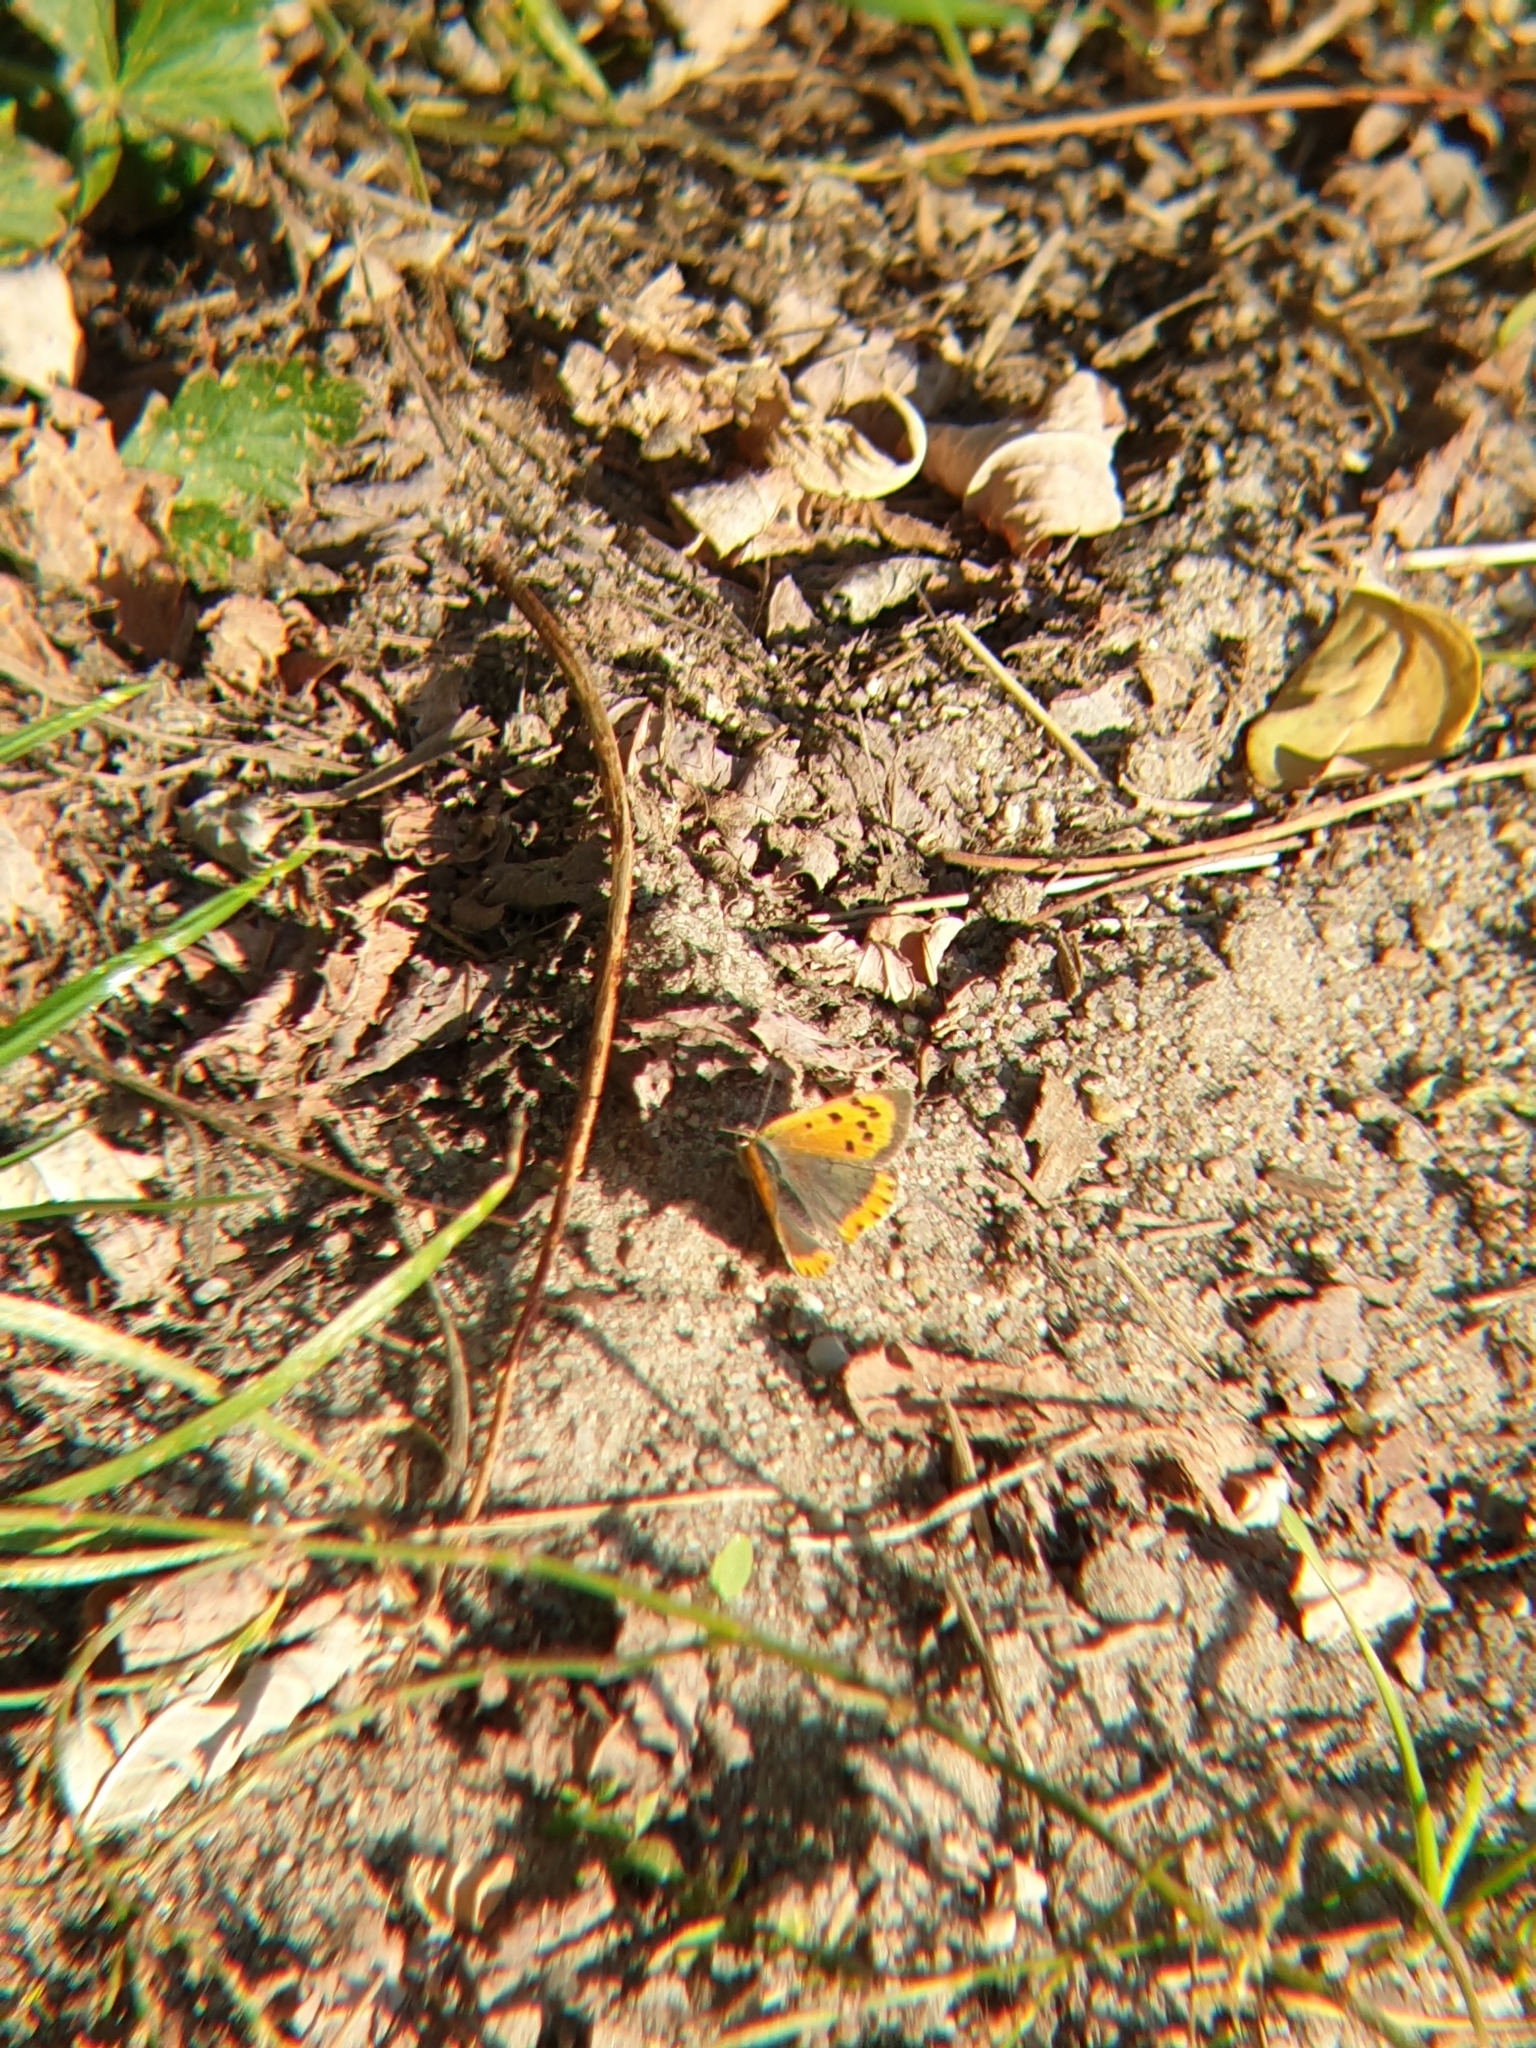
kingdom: Animalia
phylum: Arthropoda
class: Insecta
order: Lepidoptera
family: Lycaenidae
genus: Lycaena
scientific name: Lycaena phlaeas
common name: Small copper
